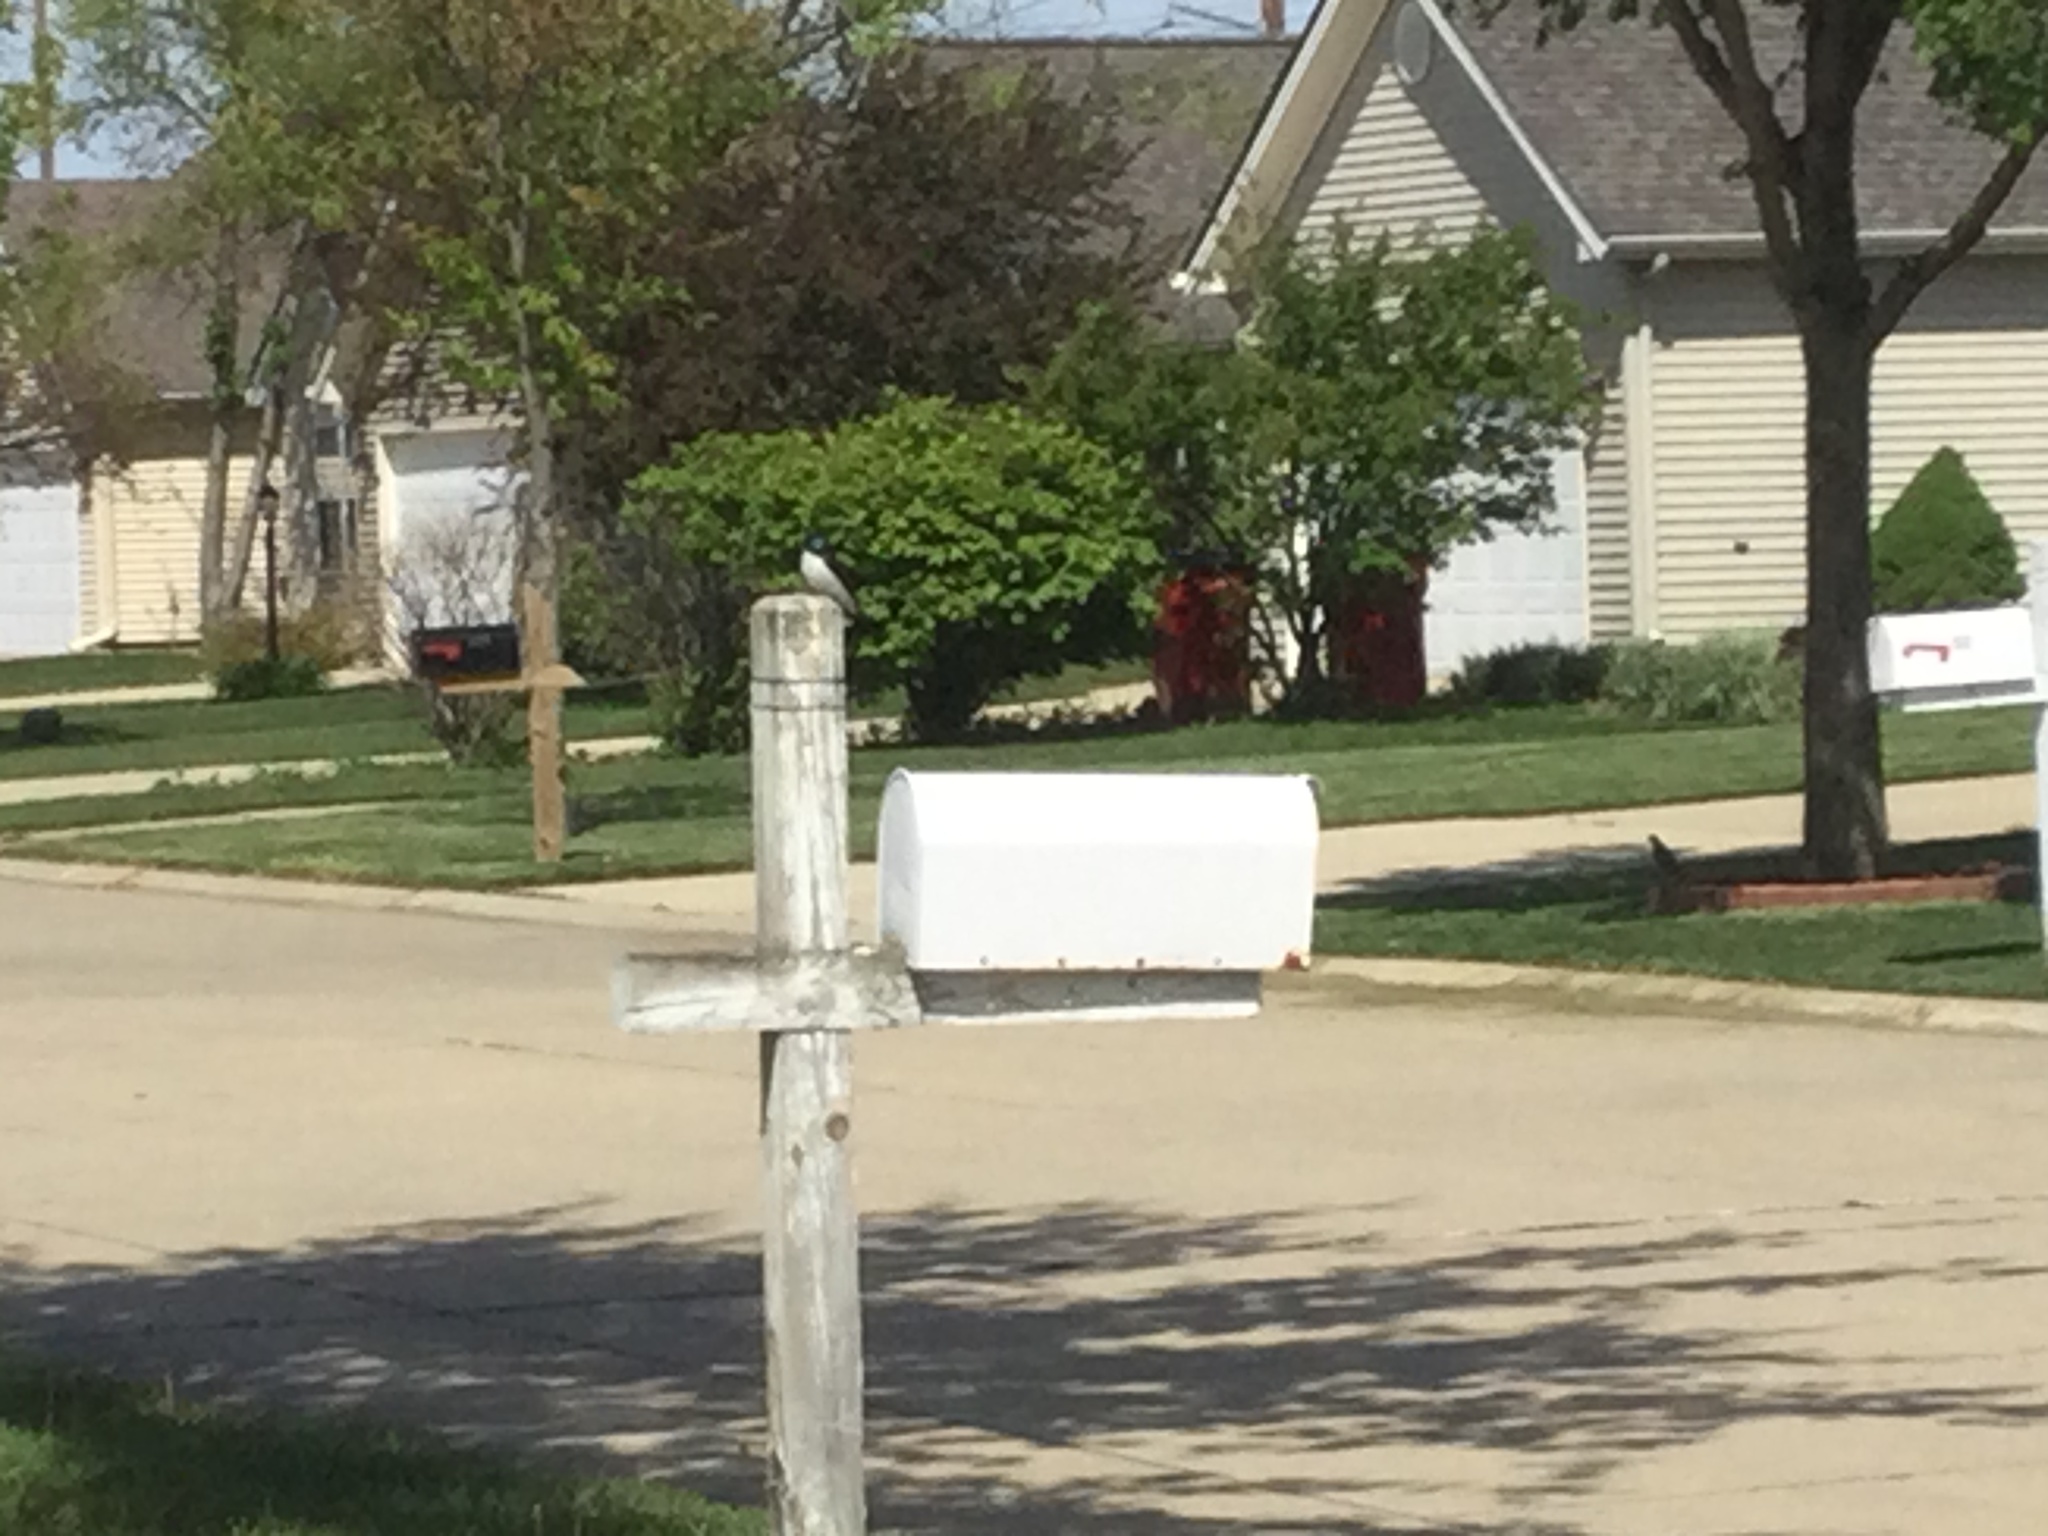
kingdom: Animalia
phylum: Chordata
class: Aves
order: Passeriformes
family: Hirundinidae
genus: Tachycineta
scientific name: Tachycineta bicolor
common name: Tree swallow
